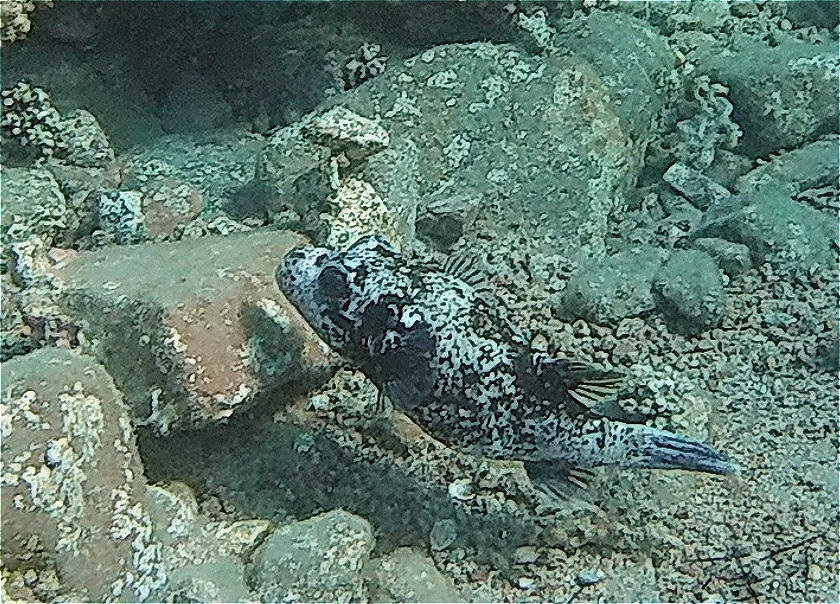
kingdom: Animalia
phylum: Chordata
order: Tetraodontiformes
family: Tetraodontidae
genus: Arothron
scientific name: Arothron diadematus
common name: Masked puffer
